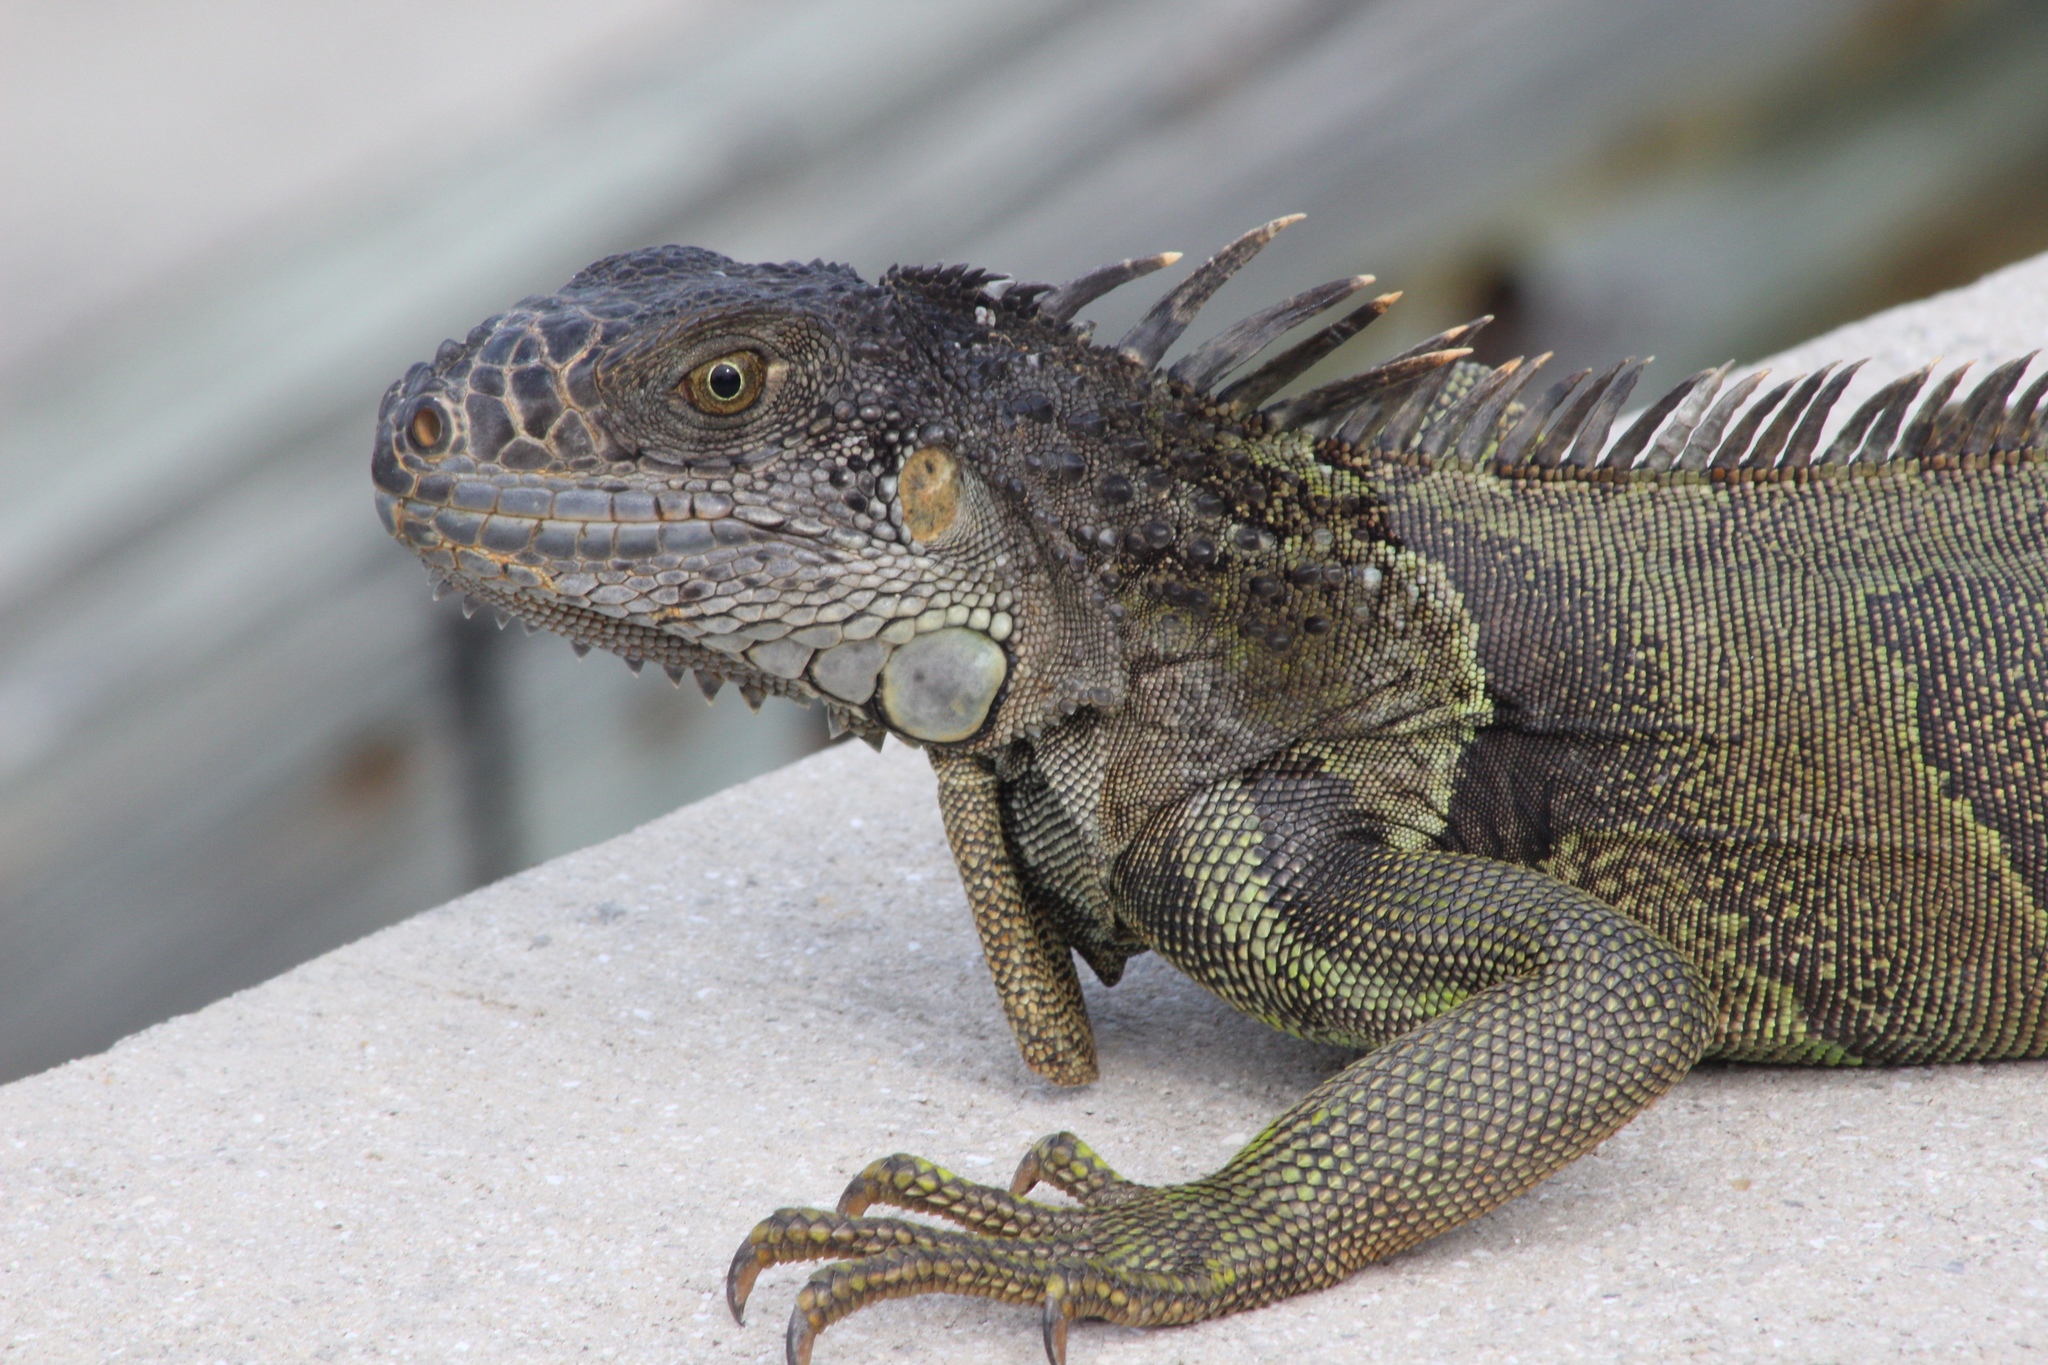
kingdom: Animalia
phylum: Chordata
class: Squamata
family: Iguanidae
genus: Iguana
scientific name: Iguana iguana
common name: Green iguana
